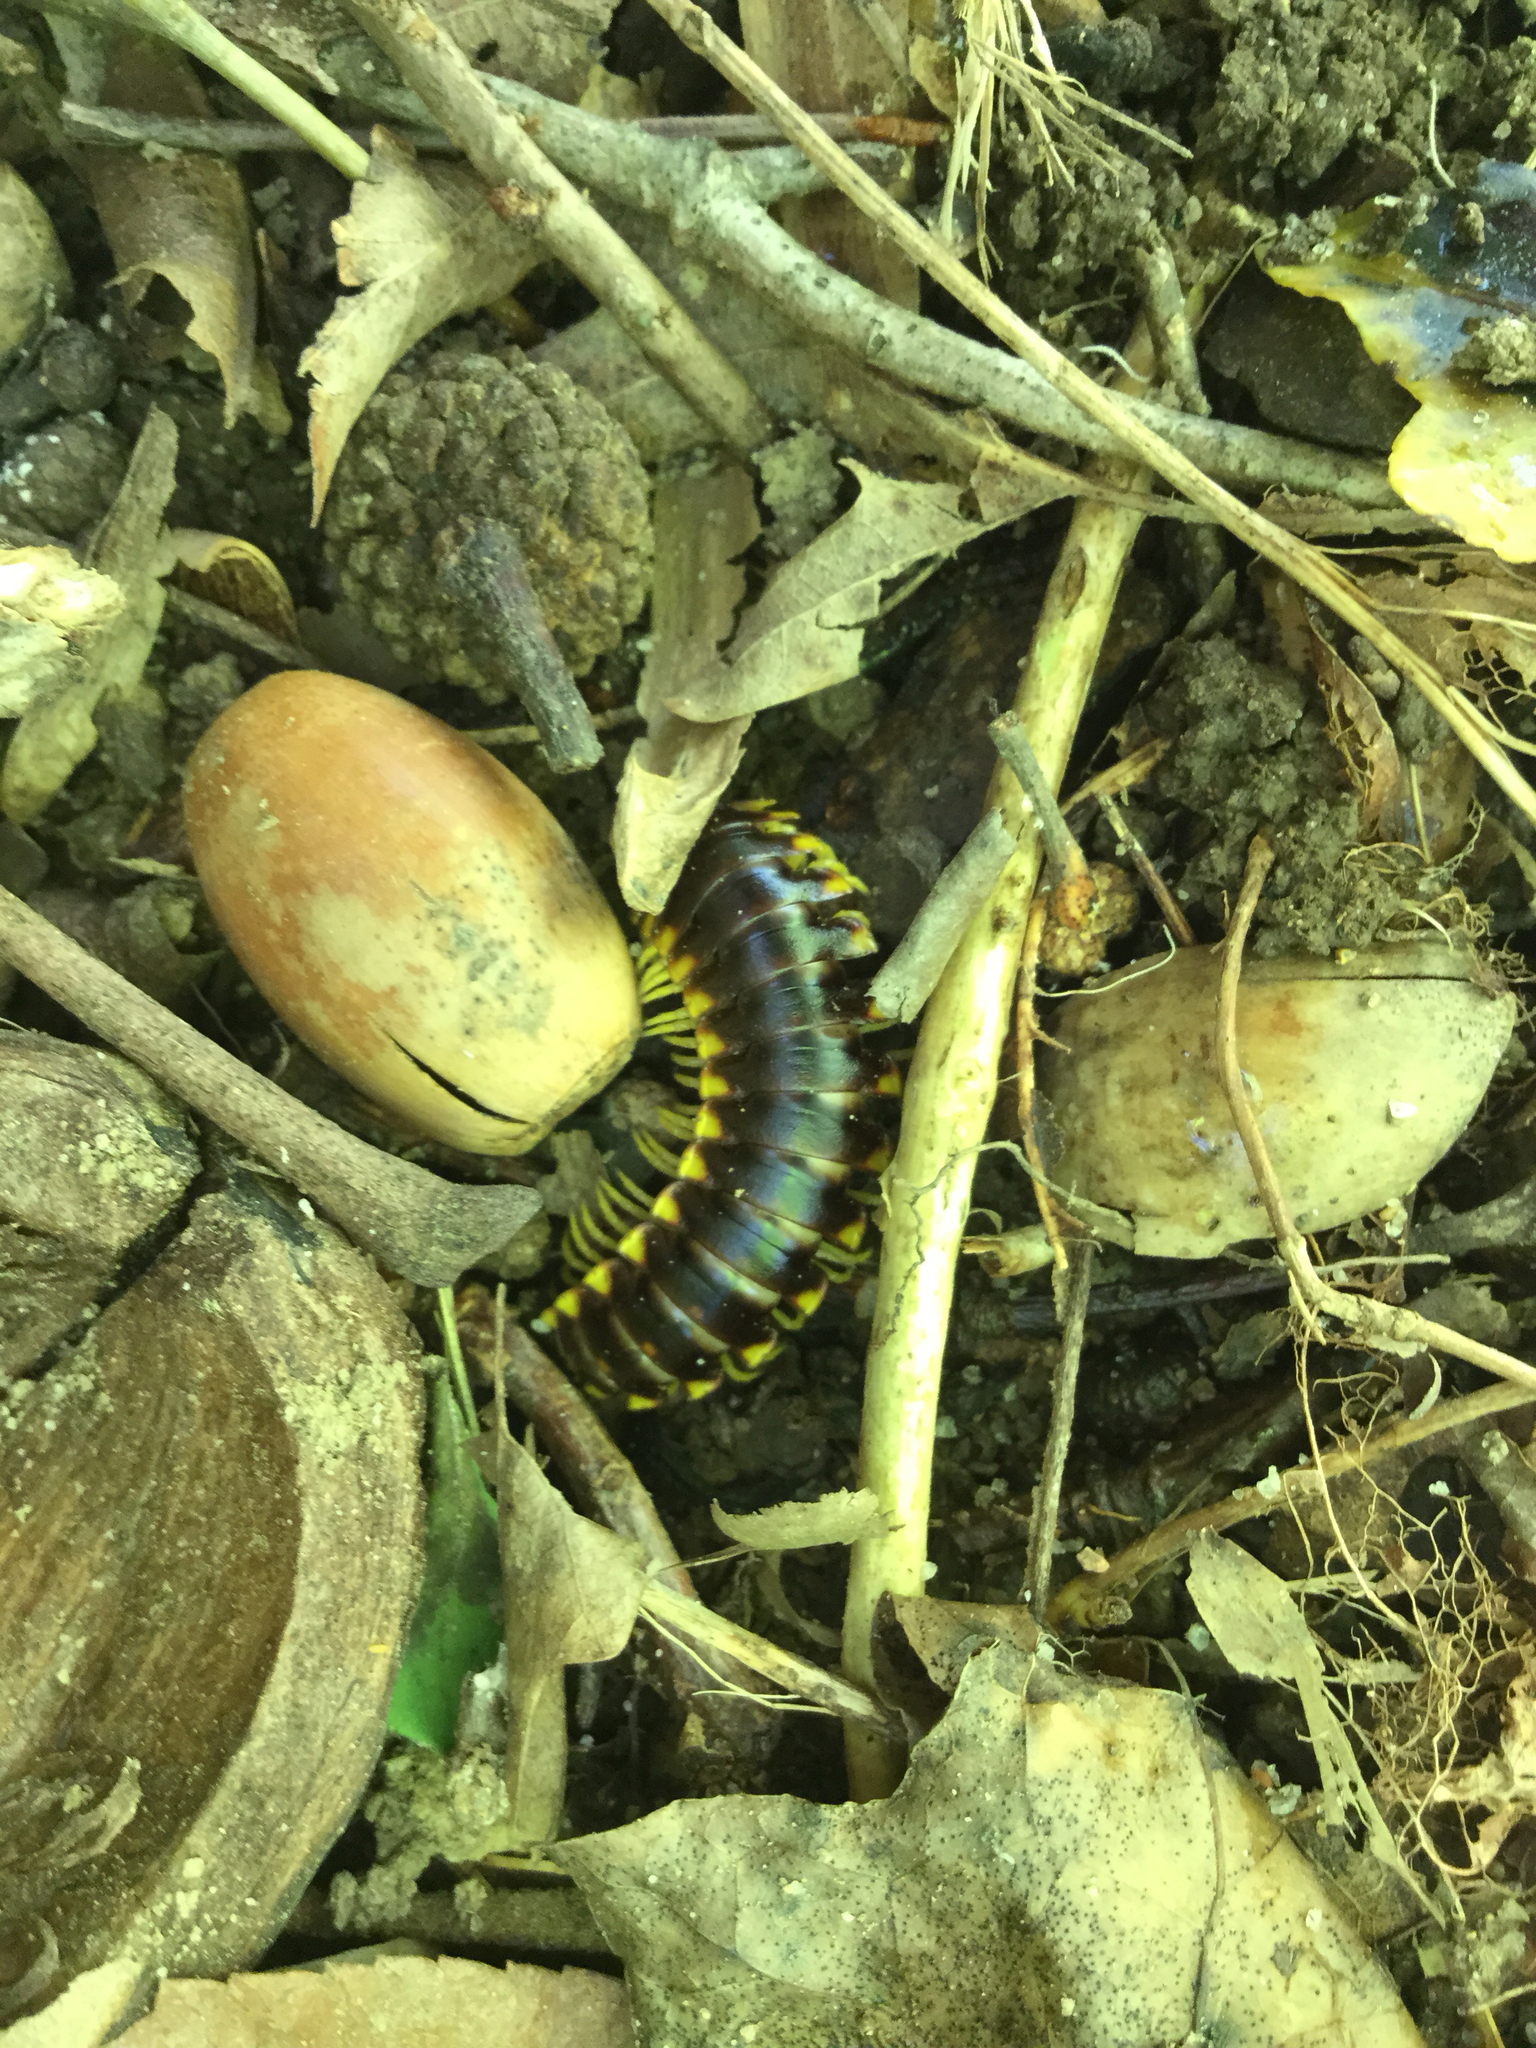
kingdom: Animalia
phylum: Arthropoda
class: Diplopoda
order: Polydesmida
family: Xystodesmidae
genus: Apheloria
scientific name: Apheloria tigana
